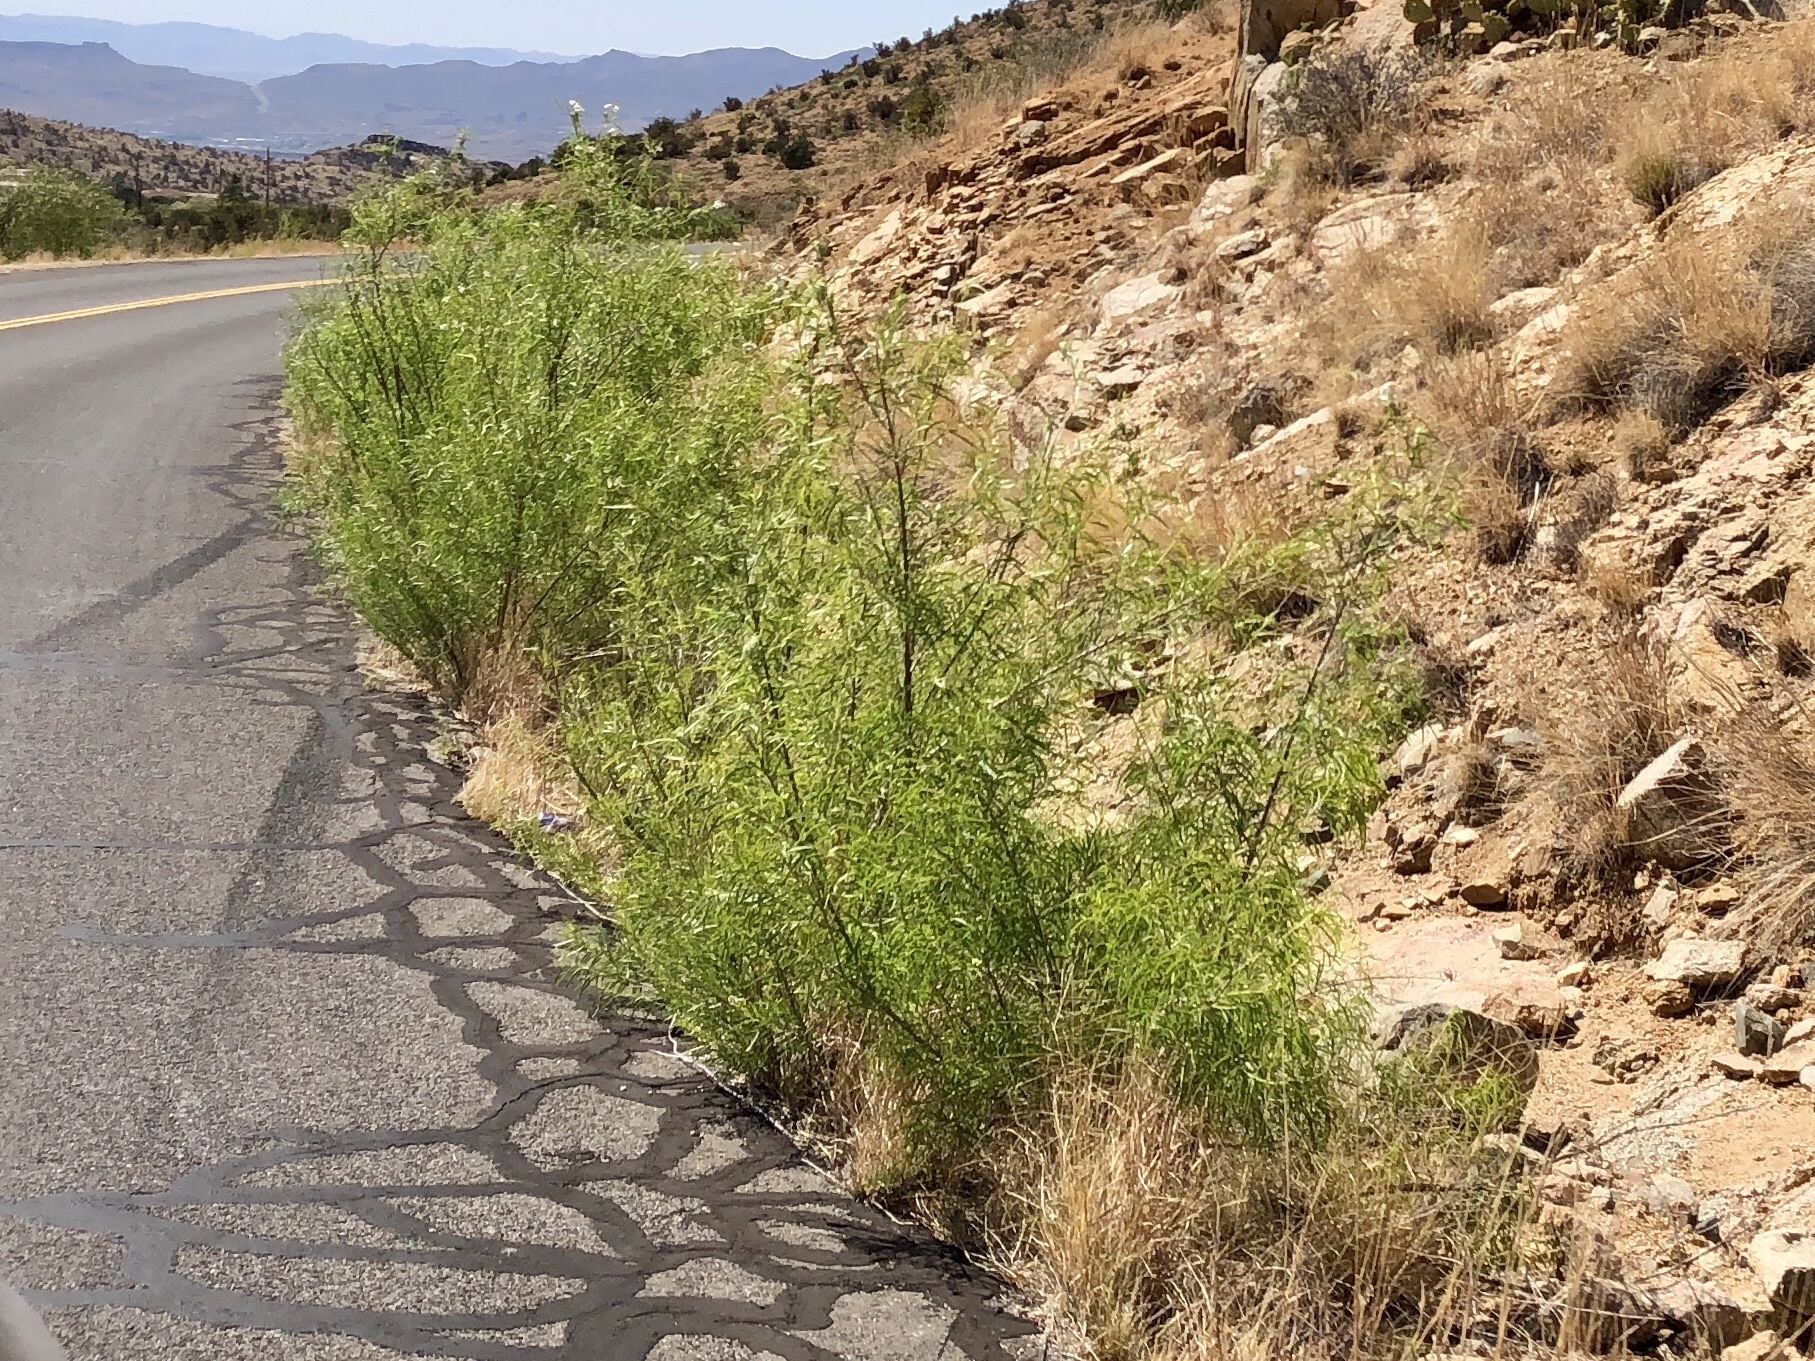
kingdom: Plantae
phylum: Tracheophyta
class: Magnoliopsida
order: Lamiales
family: Bignoniaceae
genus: Chilopsis
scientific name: Chilopsis linearis
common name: Desert-willow
